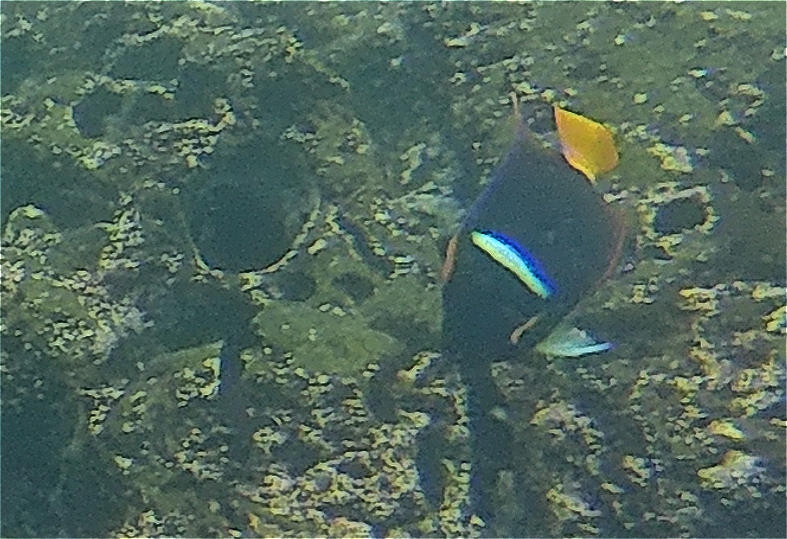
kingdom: Animalia
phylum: Chordata
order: Perciformes
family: Pomacanthidae
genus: Holacanthus
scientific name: Holacanthus passer
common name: King angelfish
